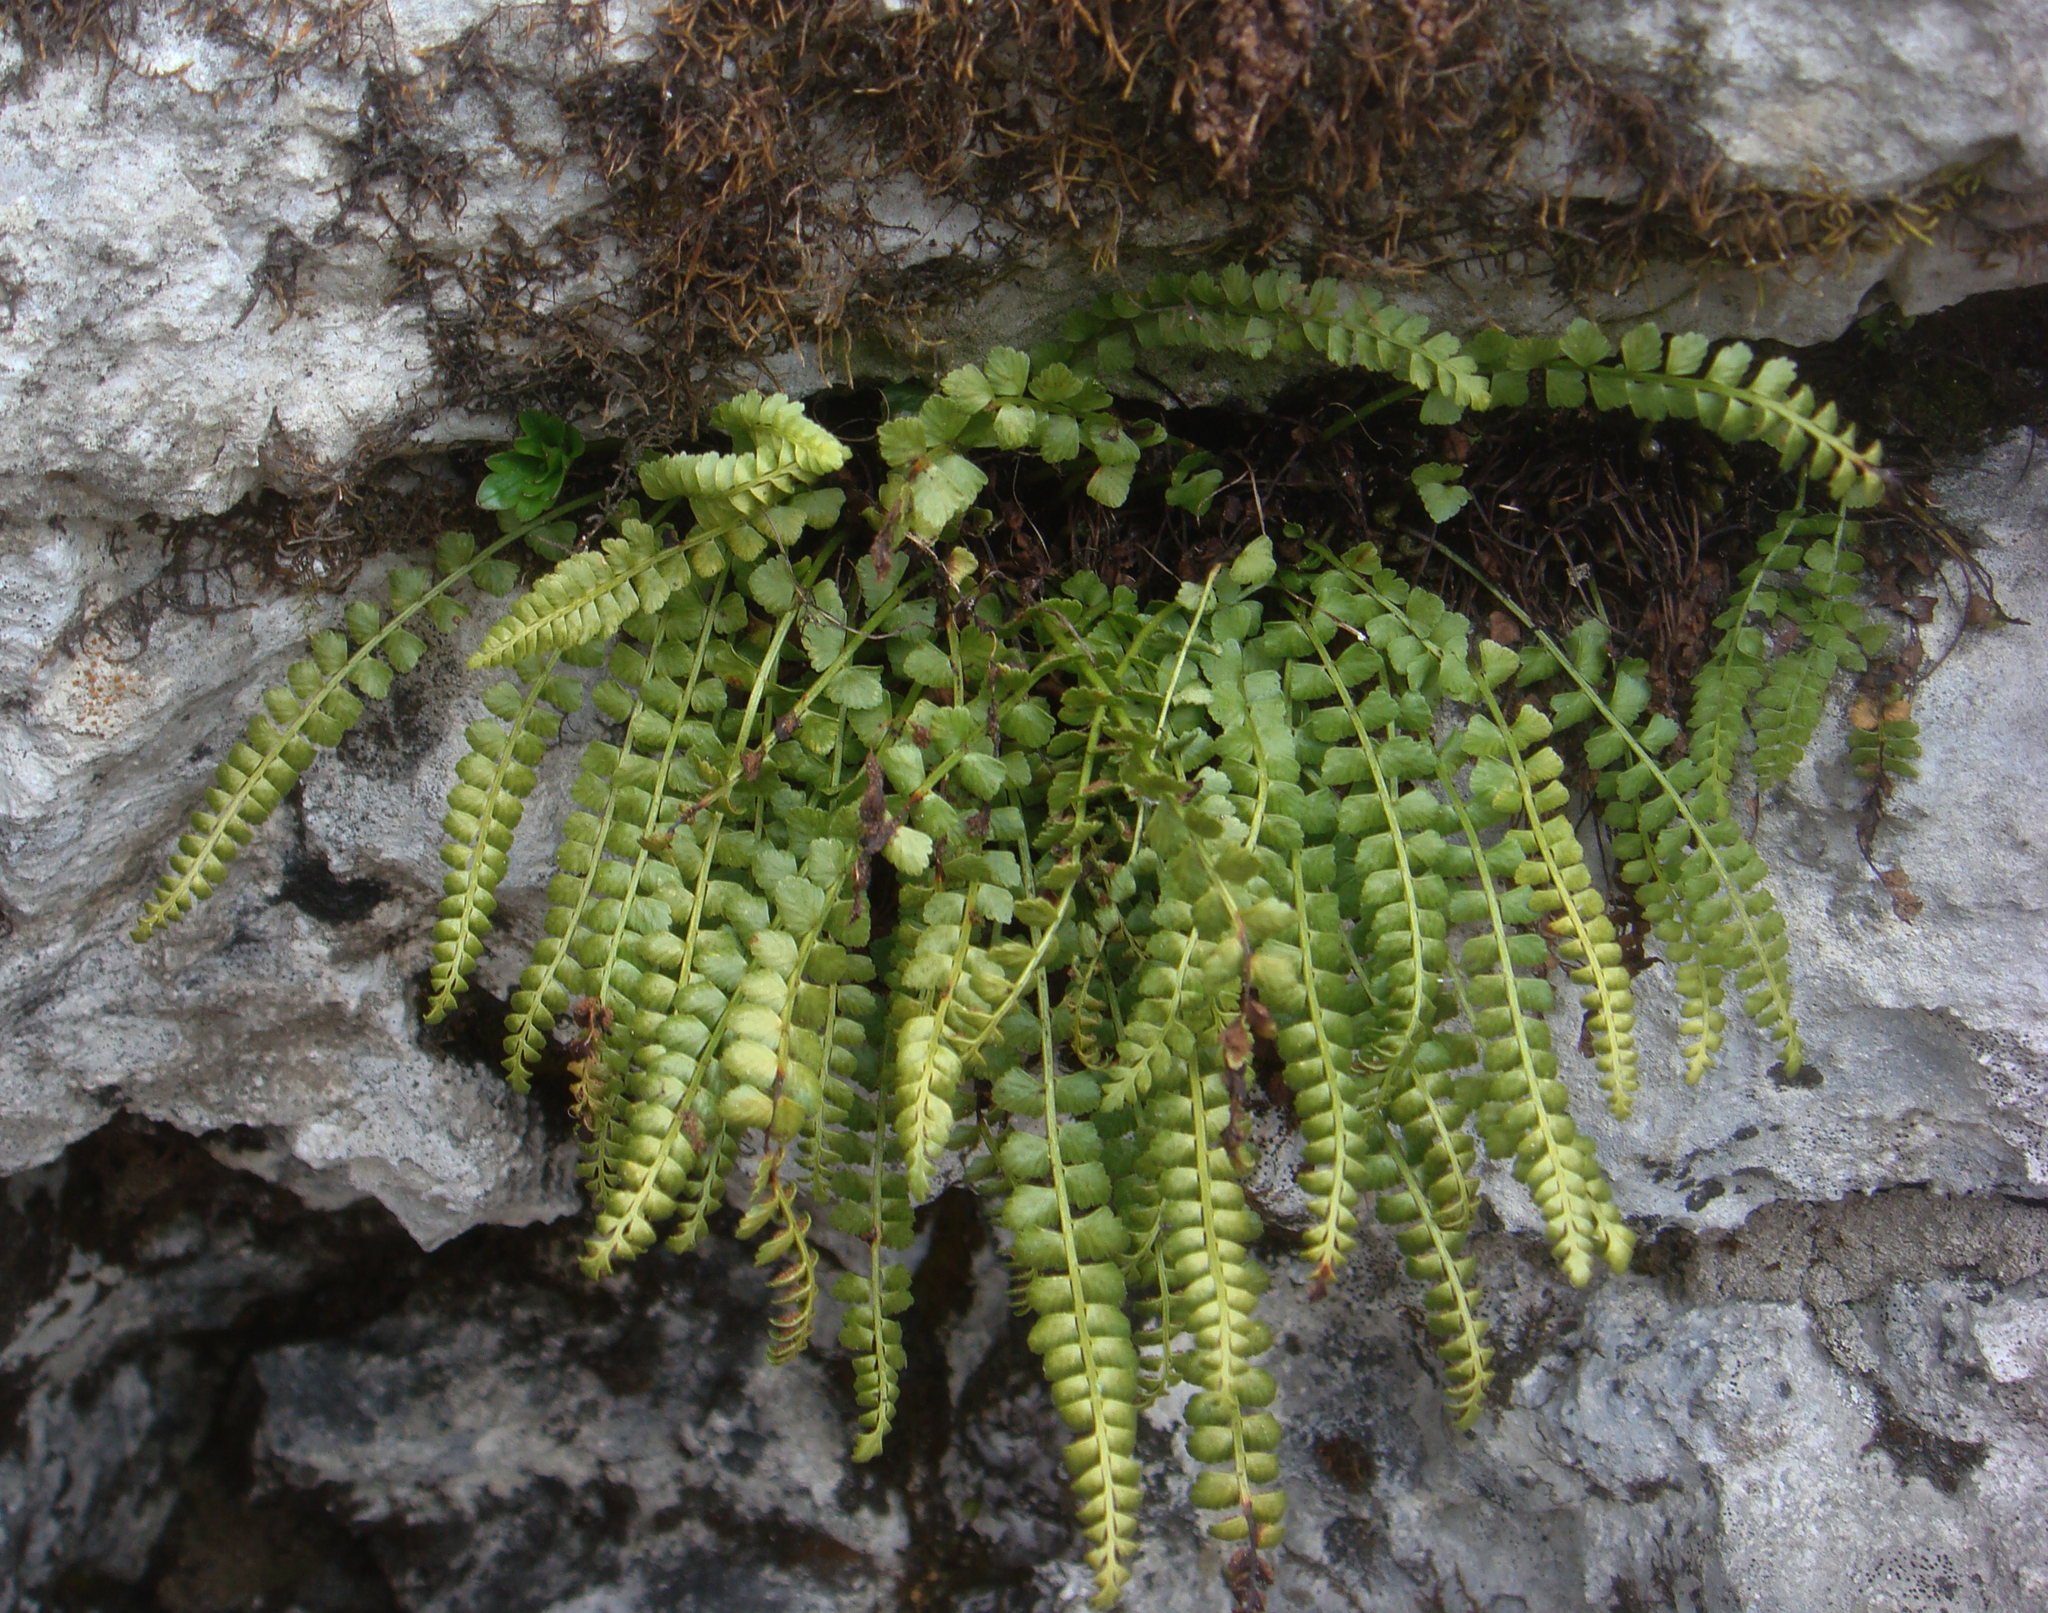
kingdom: Plantae
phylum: Tracheophyta
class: Polypodiopsida
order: Polypodiales
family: Aspleniaceae
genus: Asplenium
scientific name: Asplenium viride
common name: Green spleenwort
